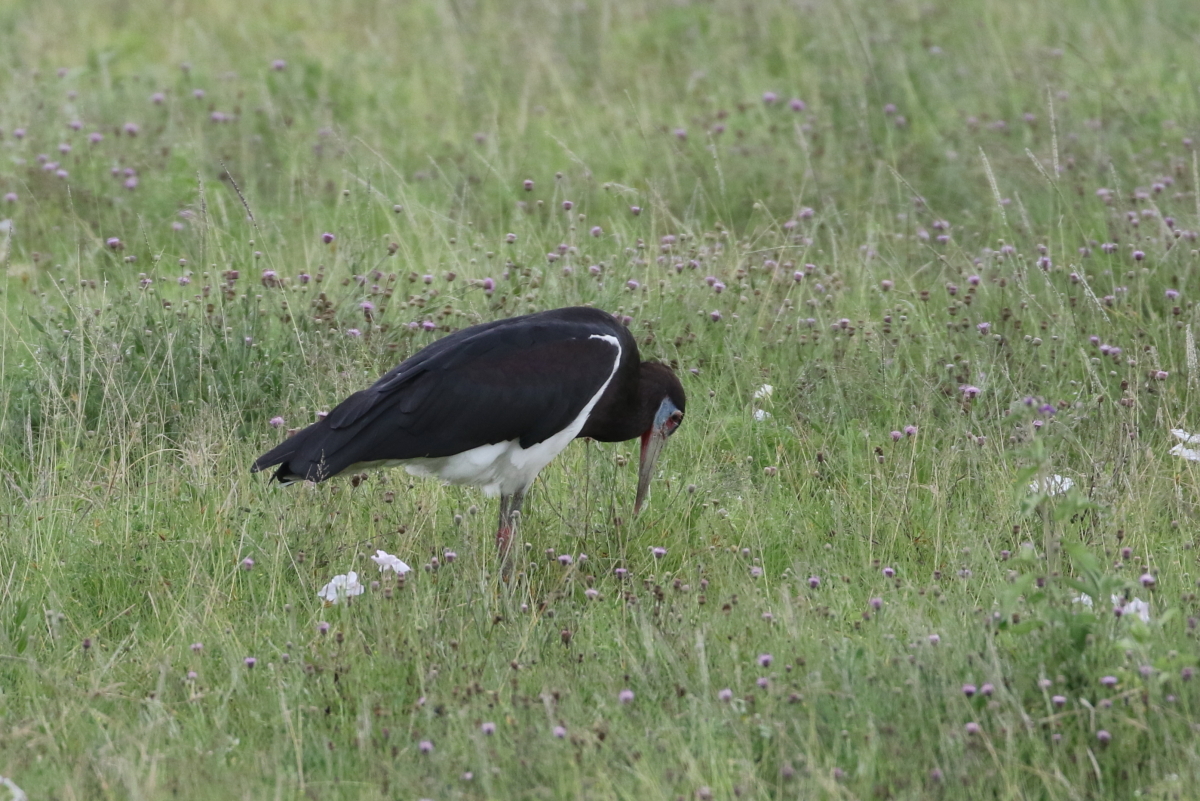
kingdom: Animalia
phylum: Chordata
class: Aves
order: Ciconiiformes
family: Ciconiidae
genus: Ciconia
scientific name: Ciconia abdimii
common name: Abdim's stork
